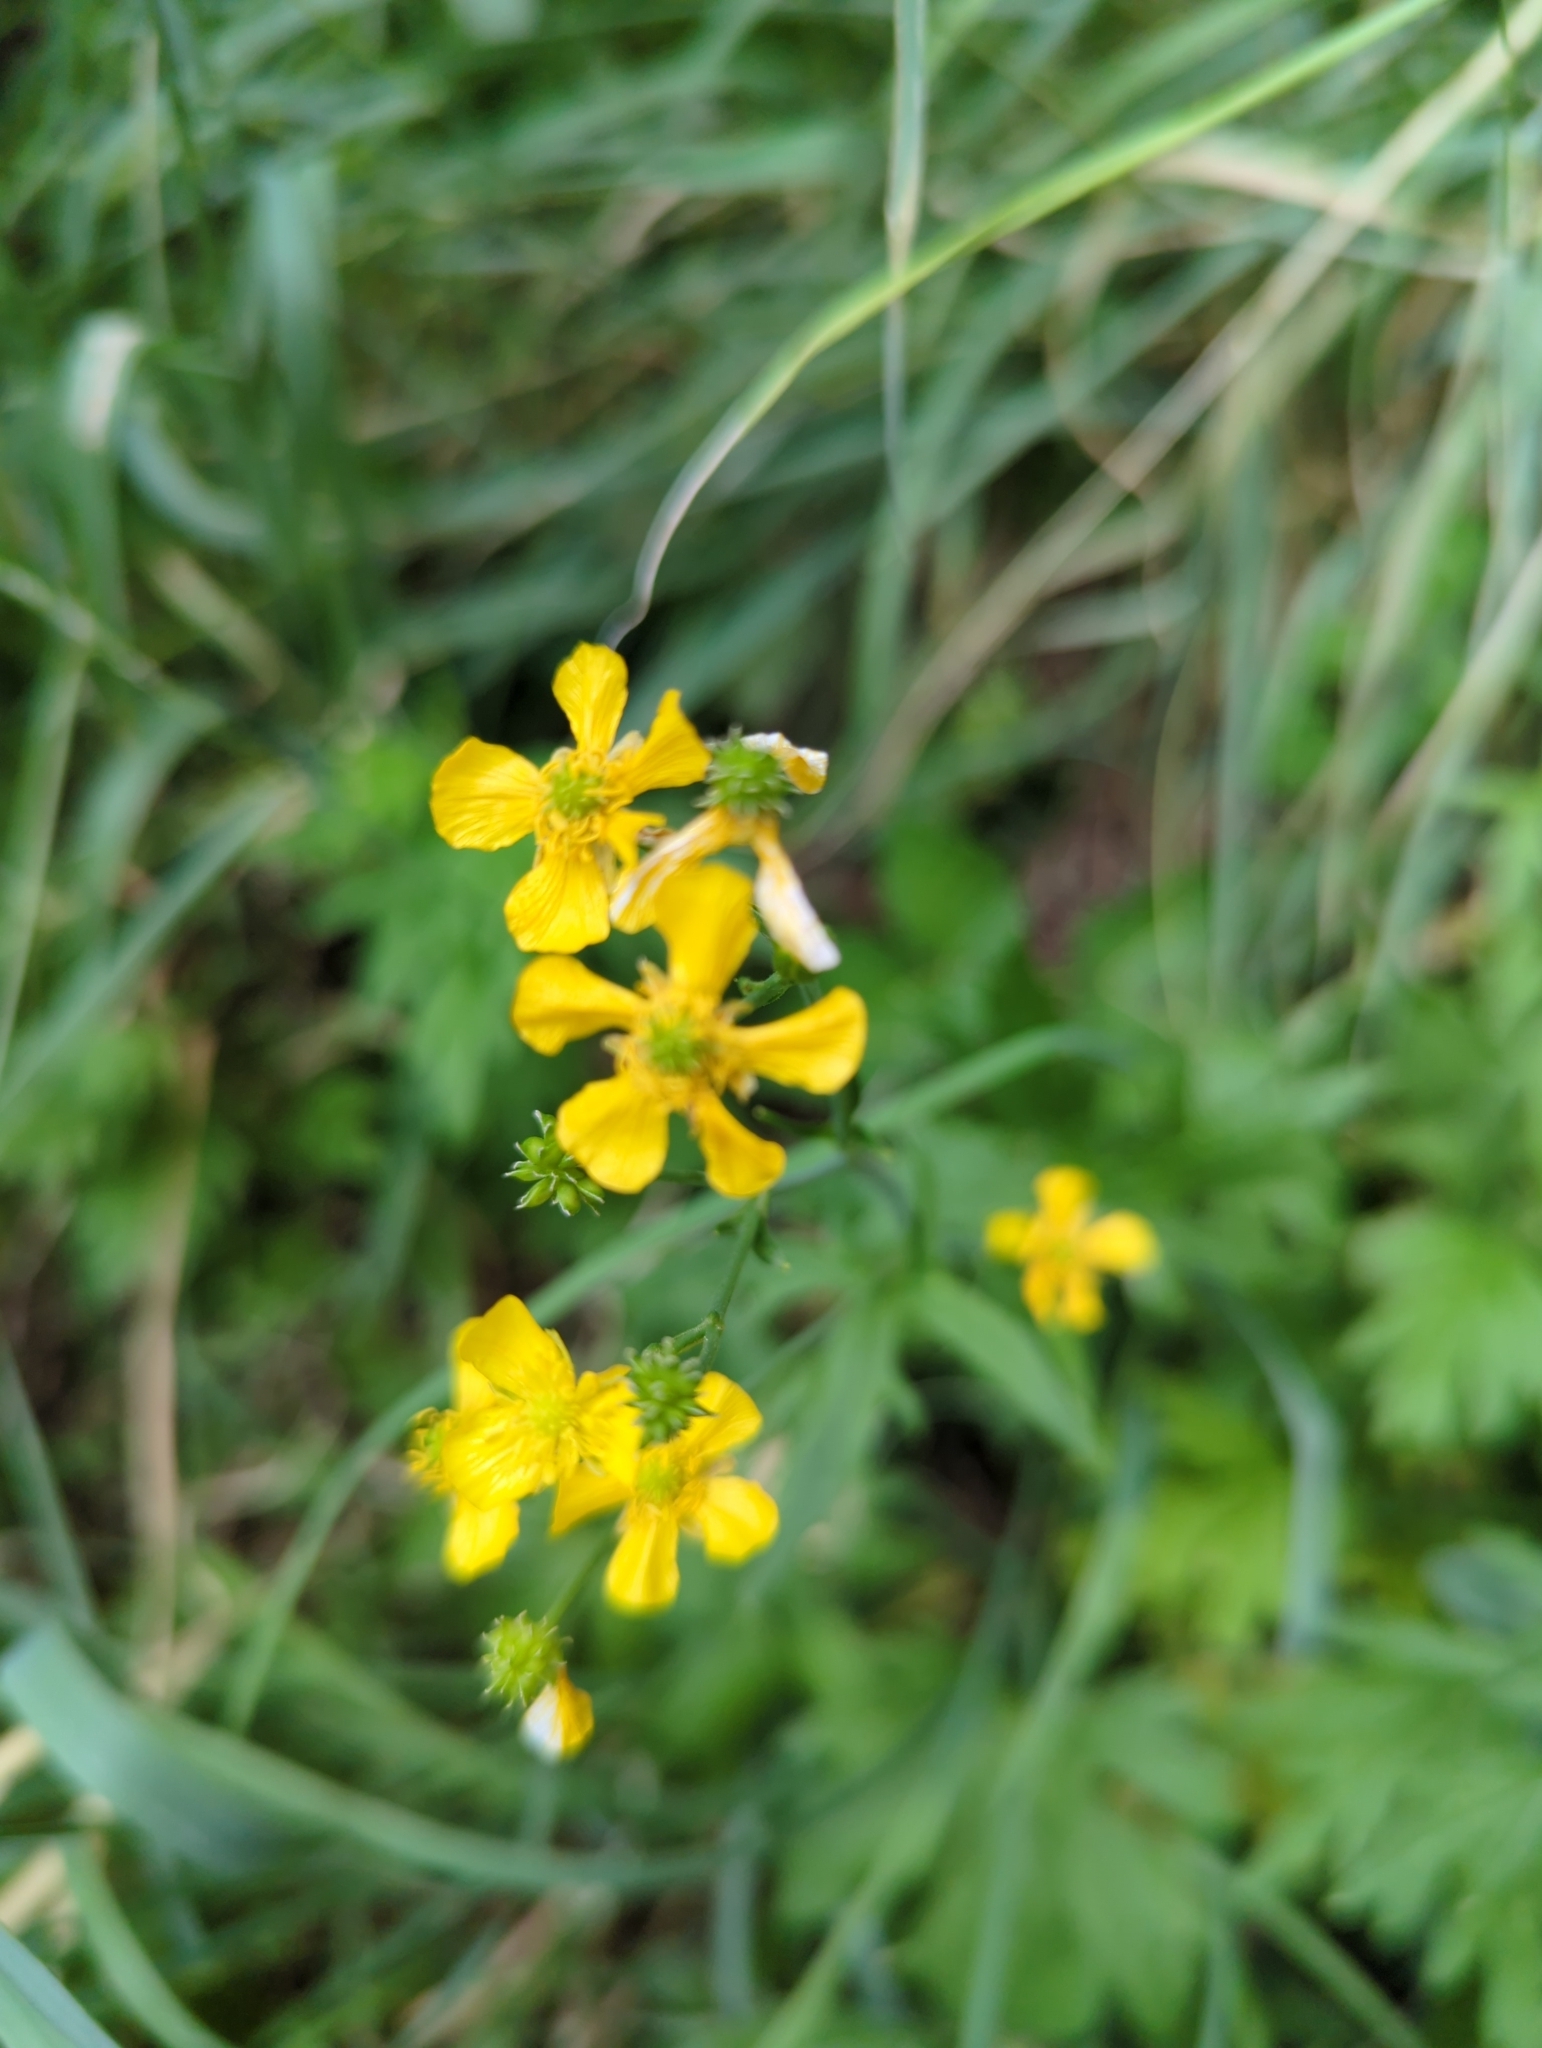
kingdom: Plantae
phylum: Tracheophyta
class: Magnoliopsida
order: Ranunculales
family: Ranunculaceae
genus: Ranunculus
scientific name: Ranunculus acris
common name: Meadow buttercup
